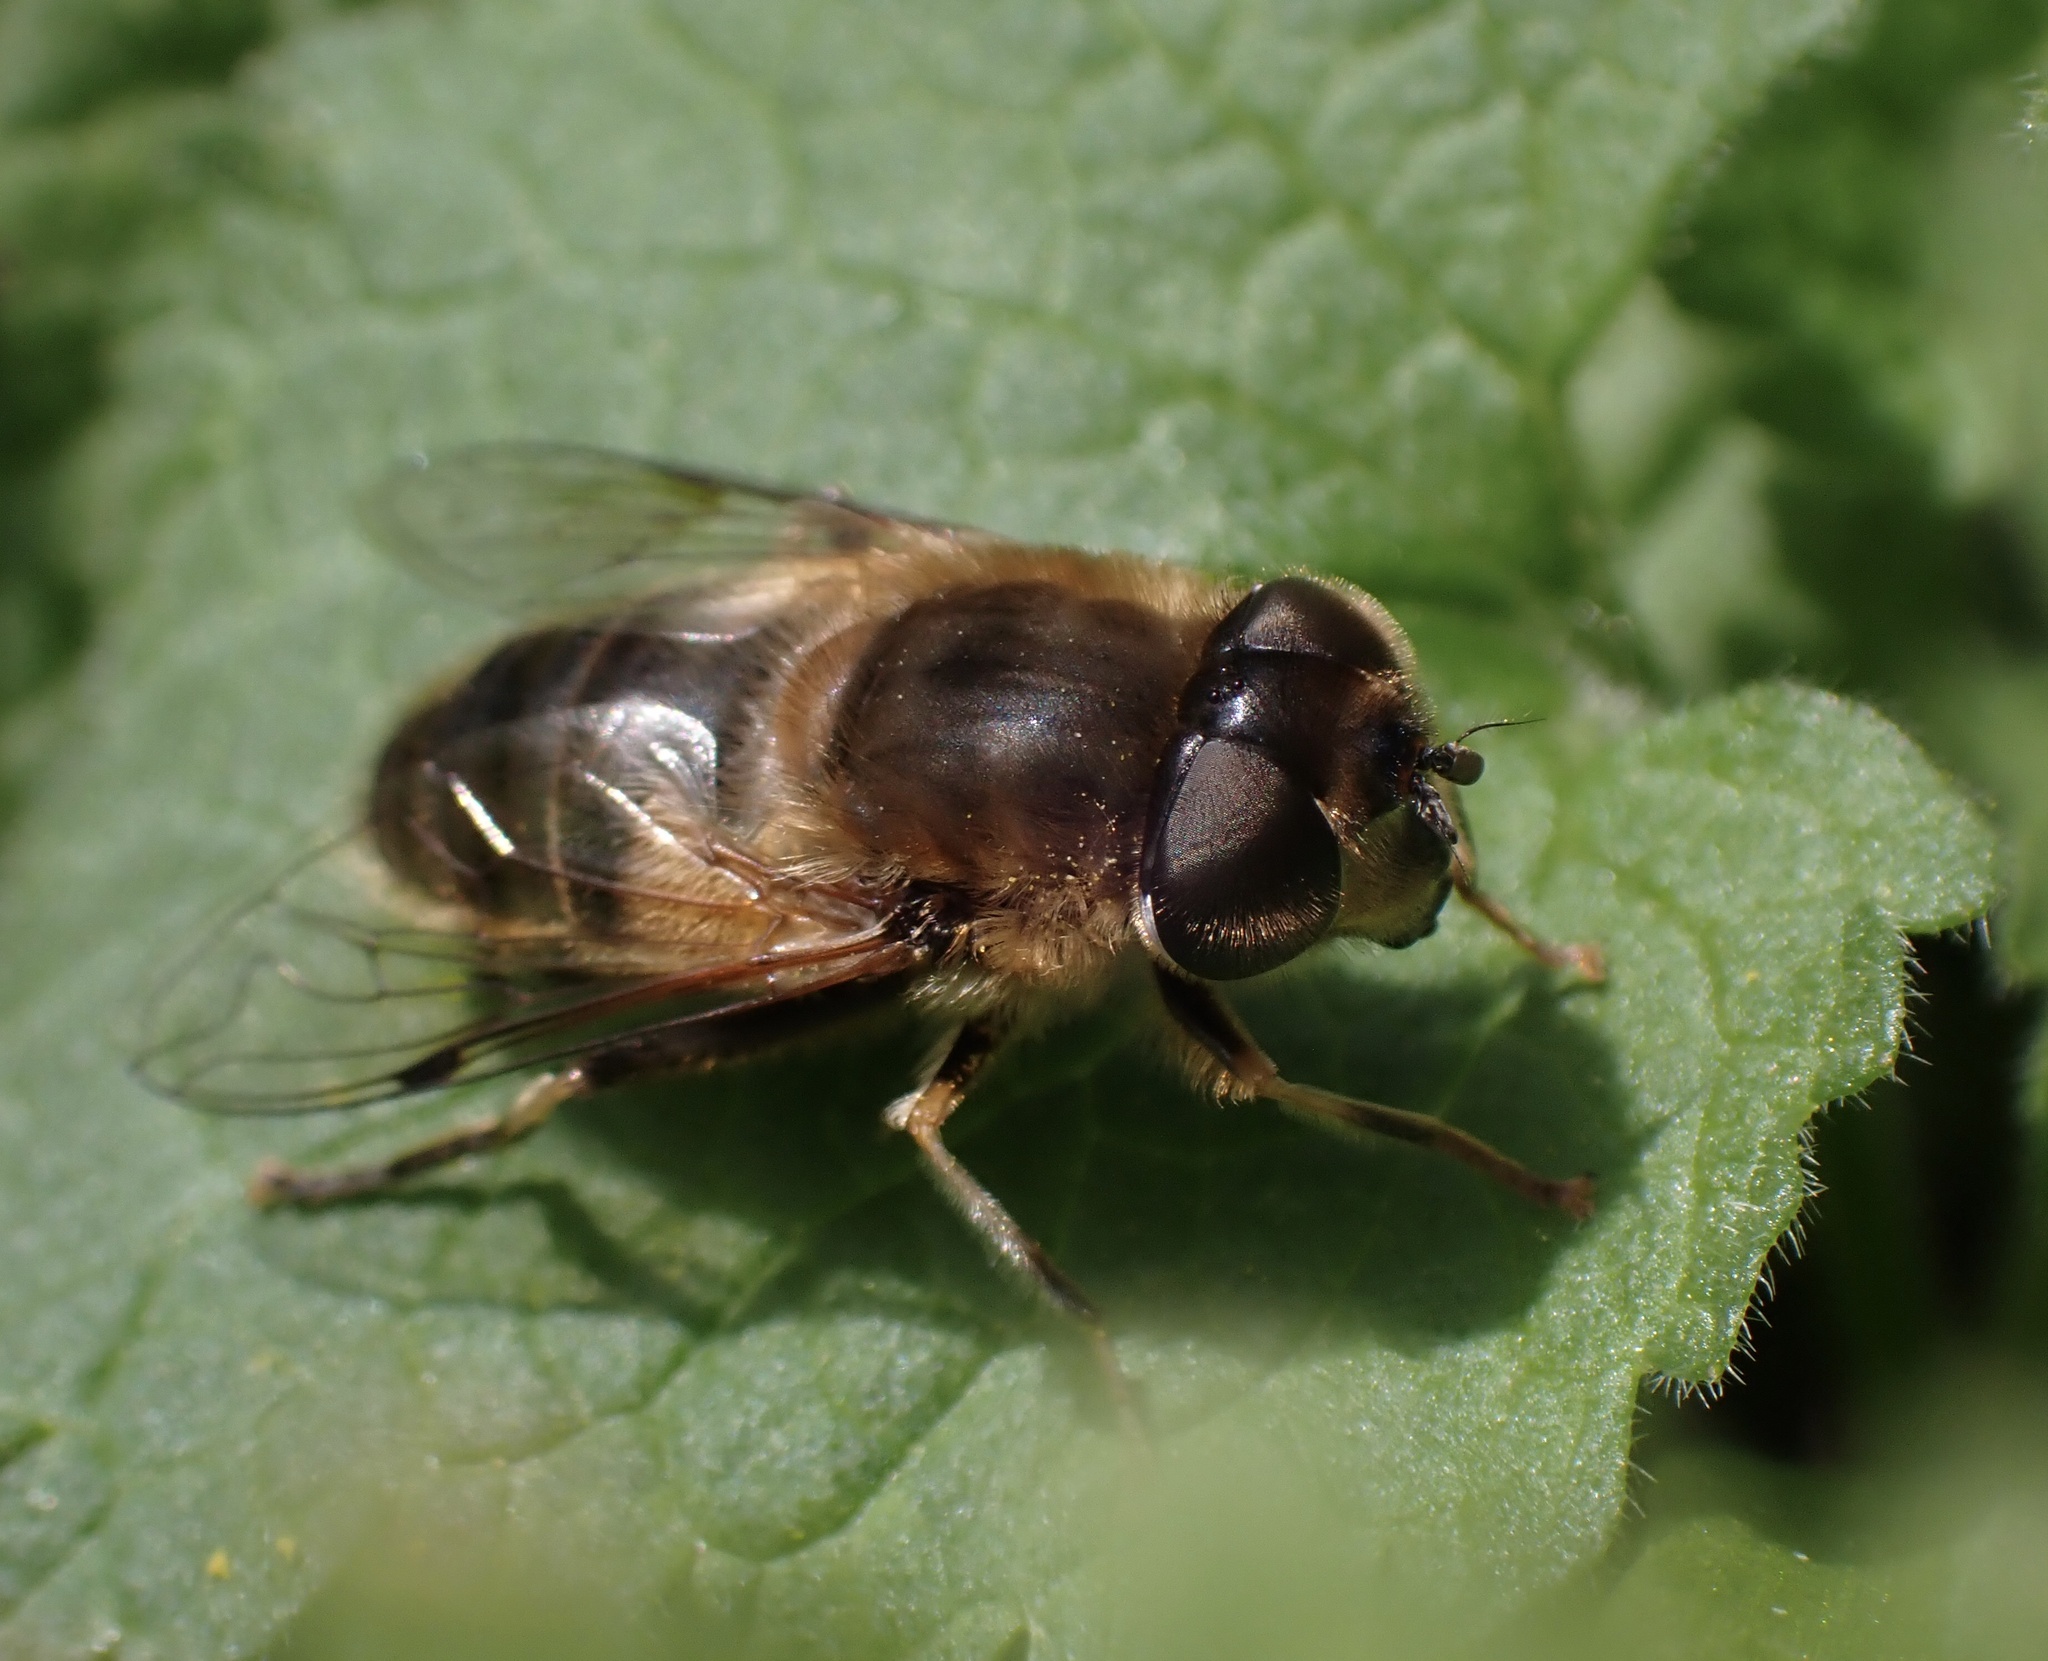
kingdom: Animalia
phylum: Arthropoda
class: Insecta
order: Diptera
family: Syrphidae
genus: Eristalis
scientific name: Eristalis pertinax
